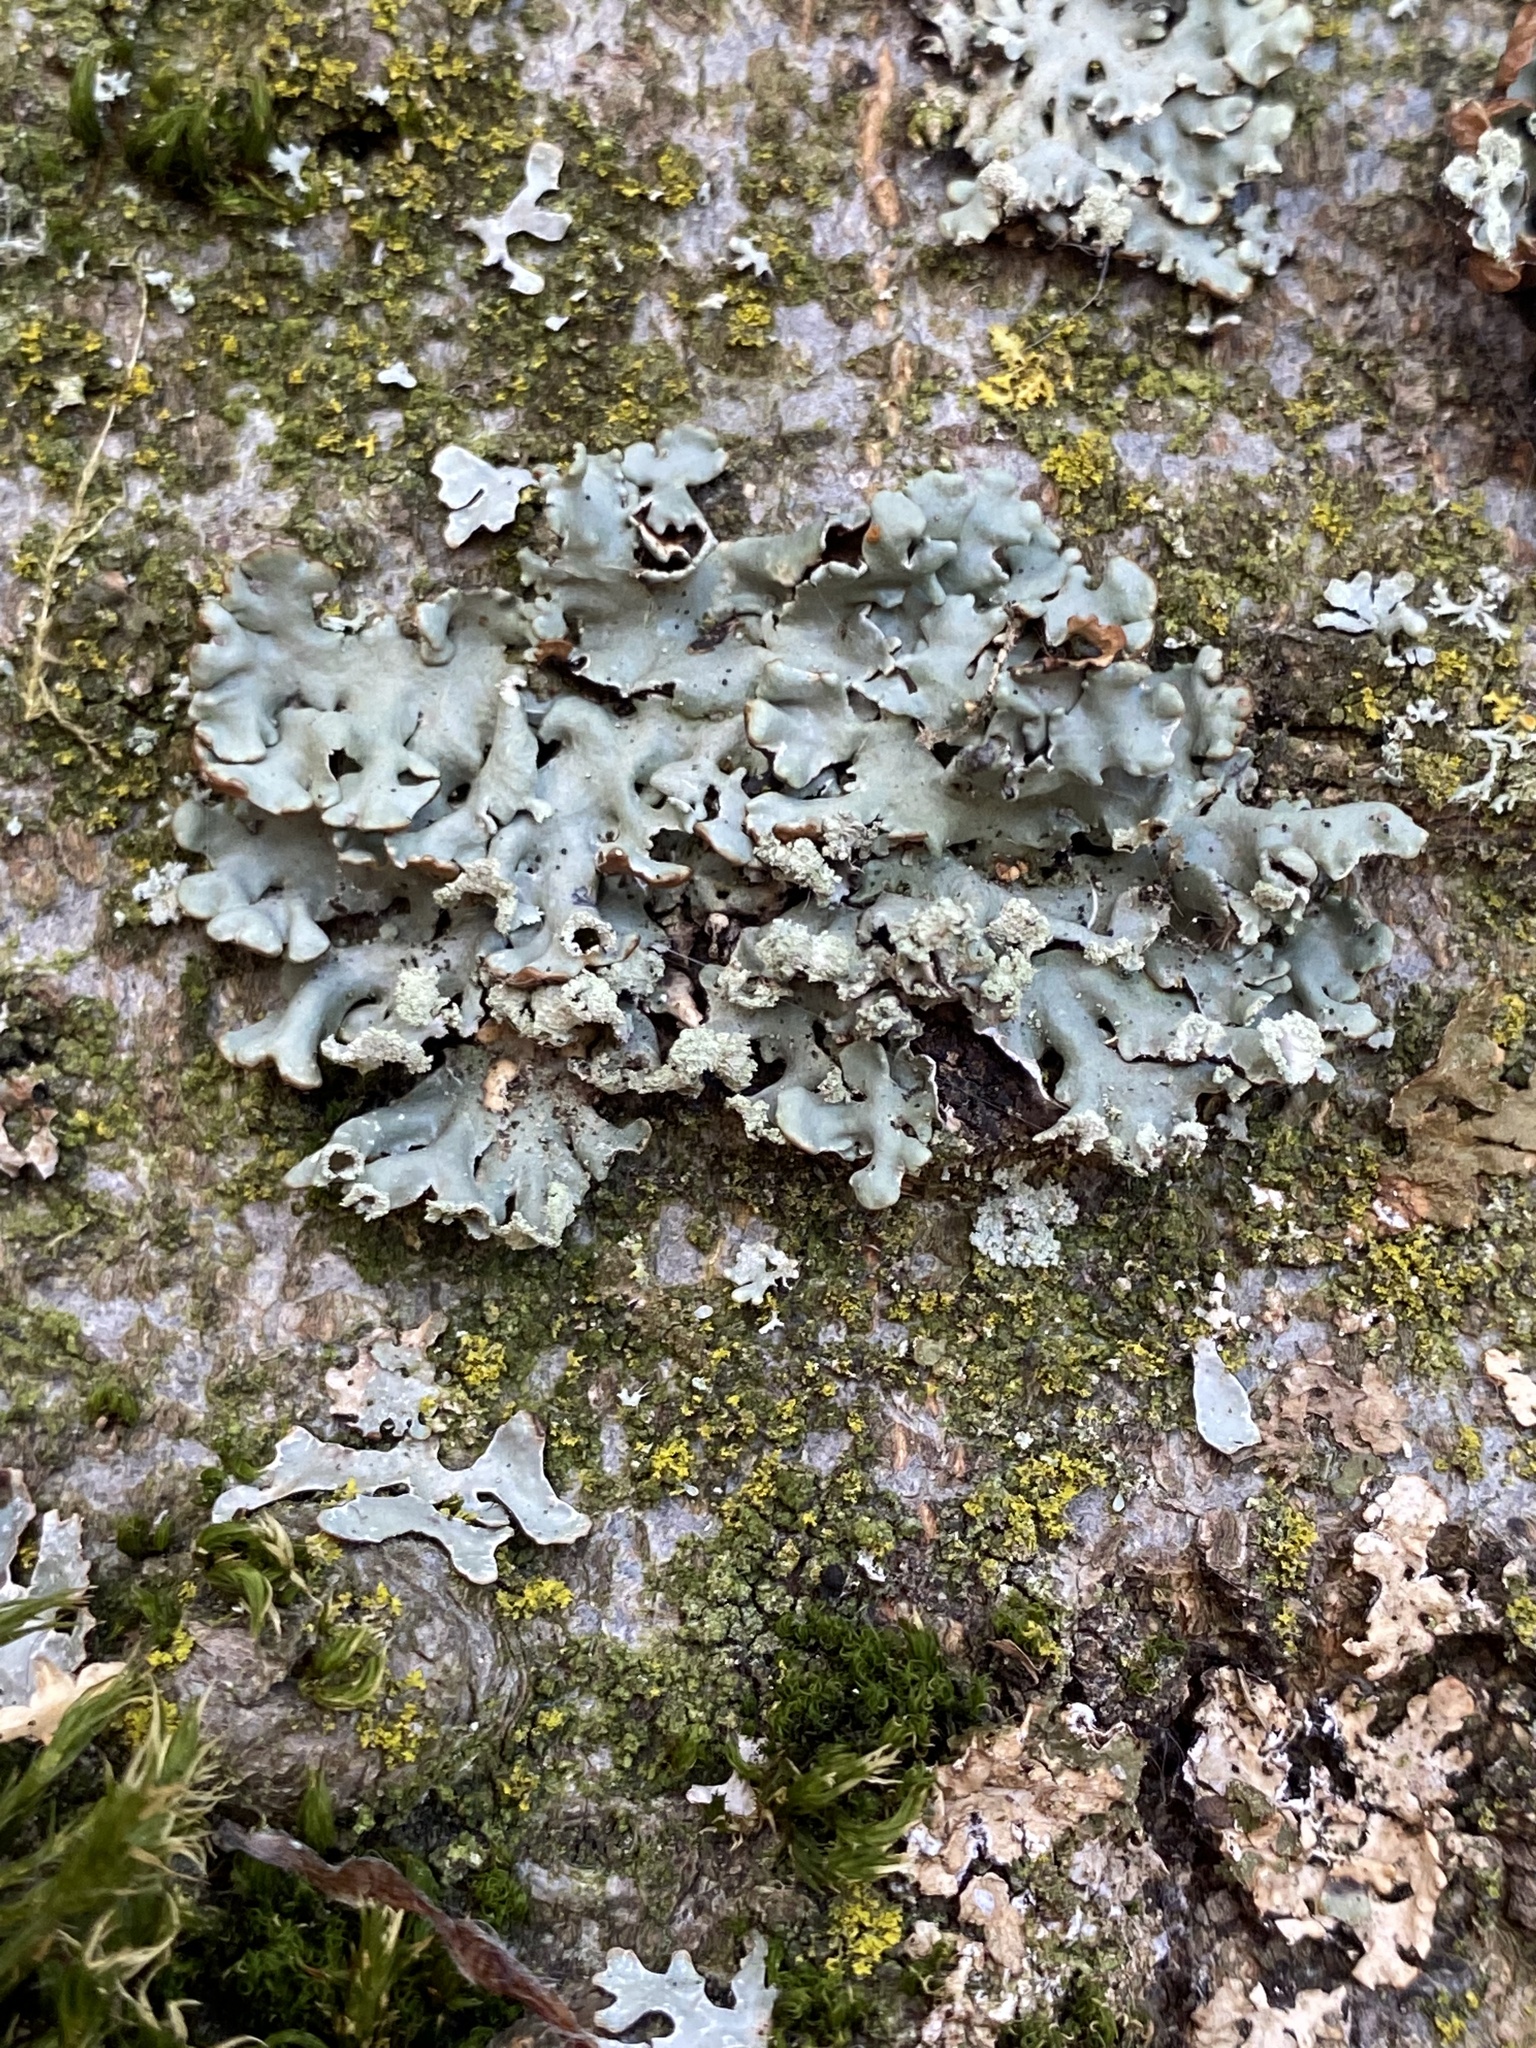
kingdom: Fungi
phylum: Ascomycota
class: Lecanoromycetes
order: Lecanorales
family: Parmeliaceae
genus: Hypogymnia
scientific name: Hypogymnia physodes
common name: Dark crottle
